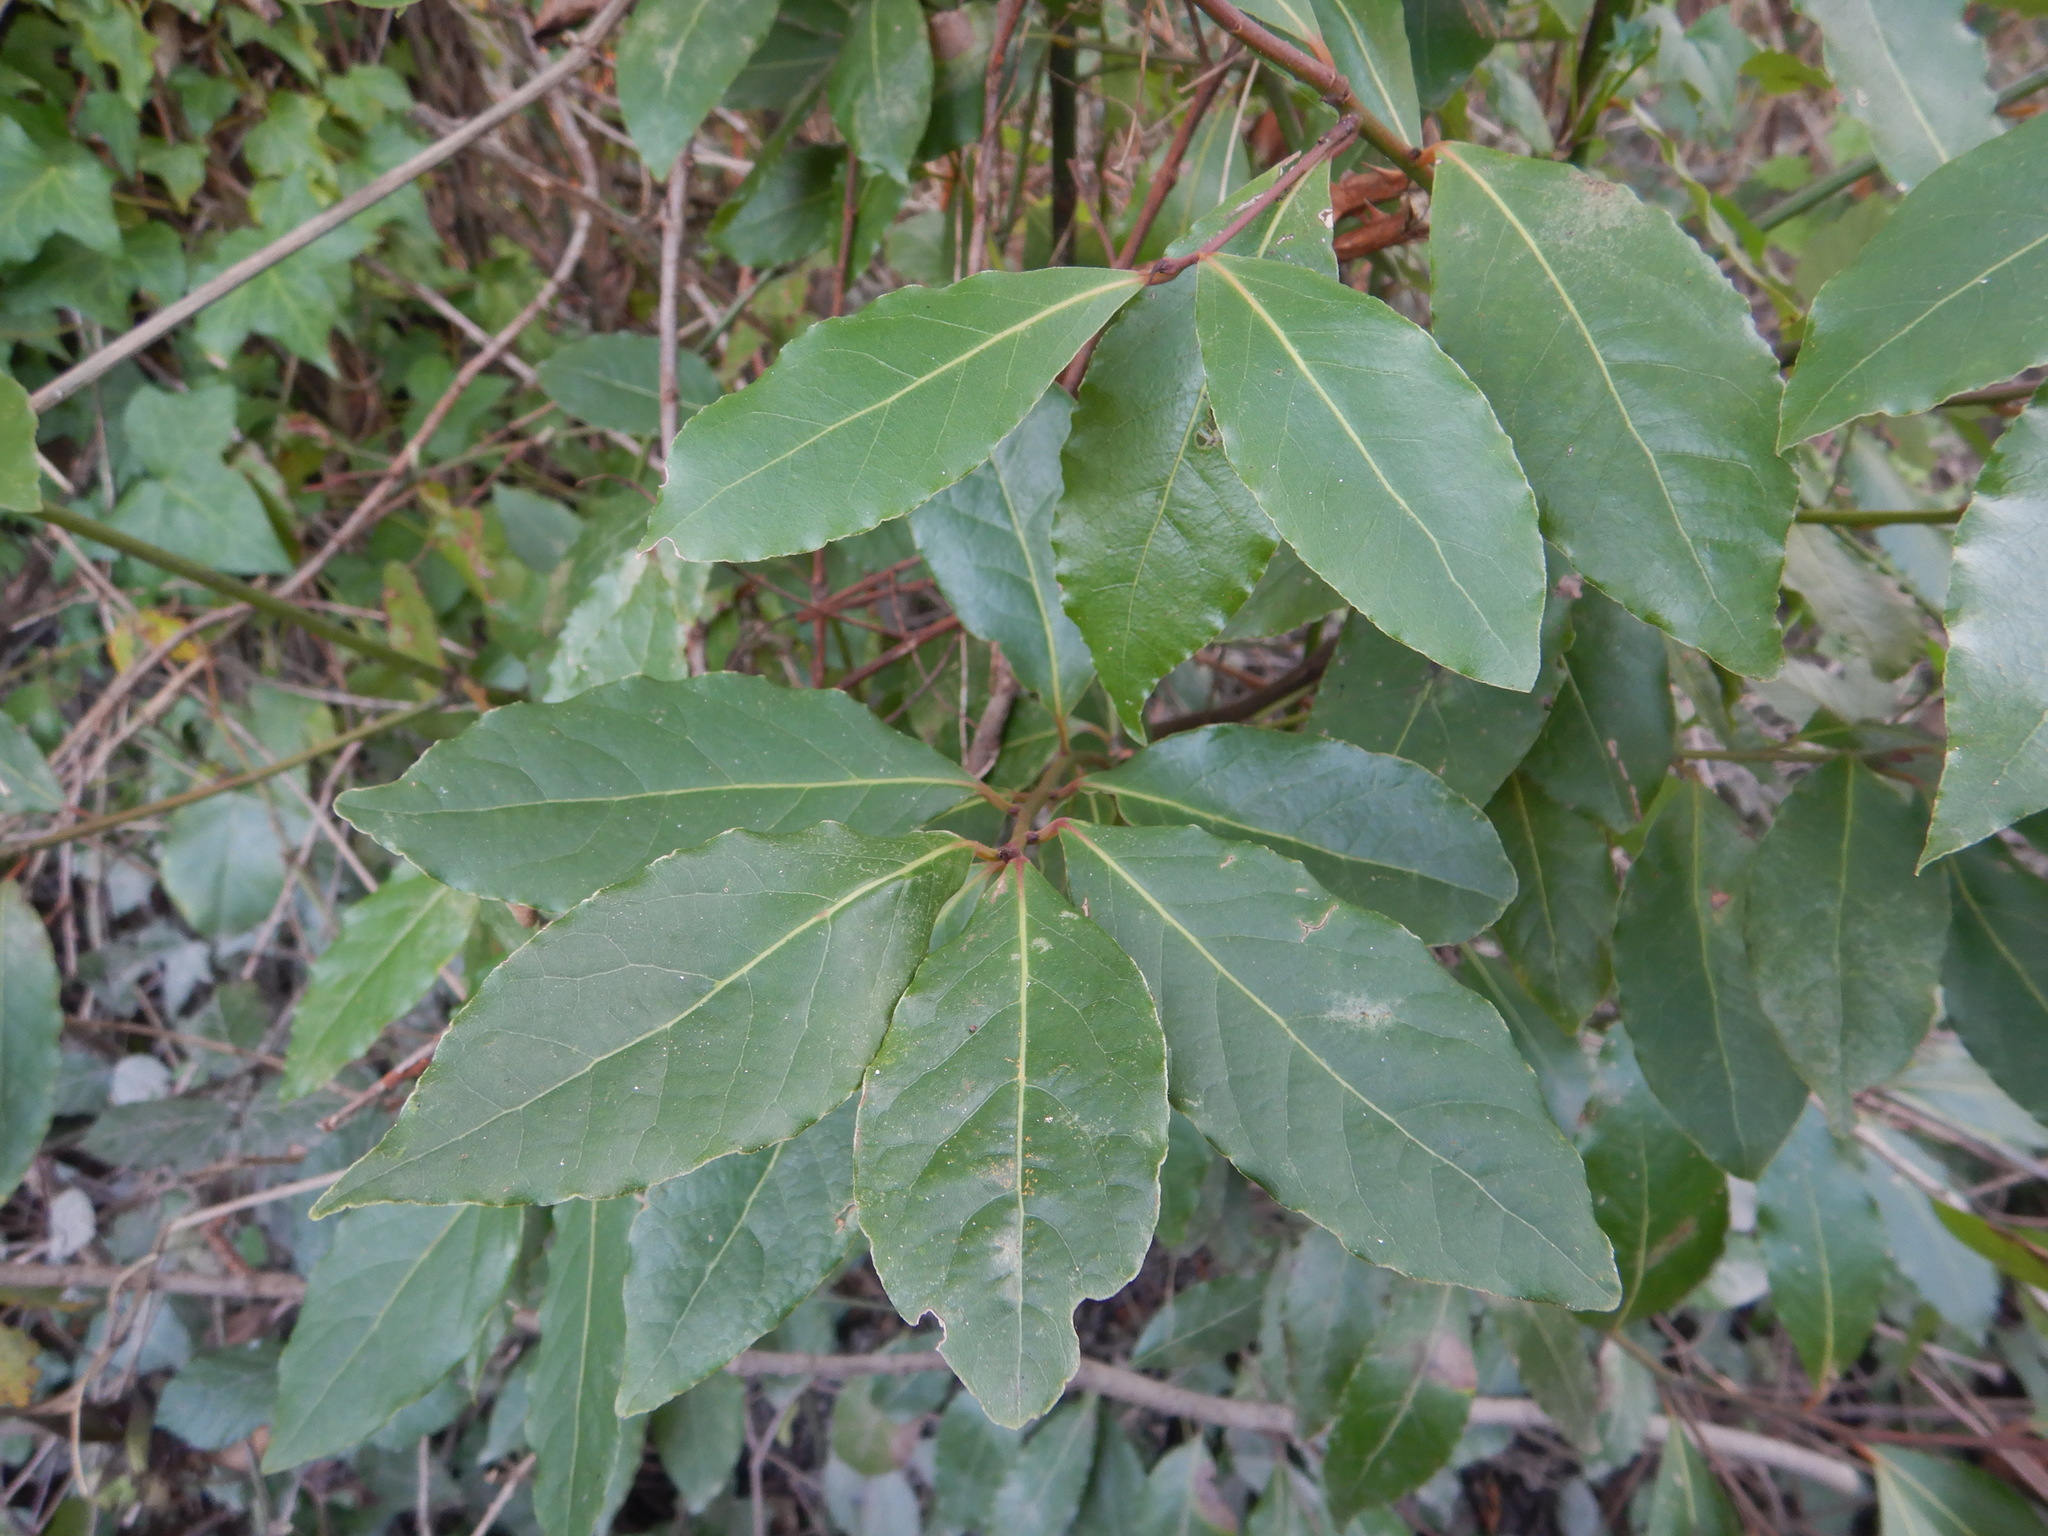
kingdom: Plantae
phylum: Tracheophyta
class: Magnoliopsida
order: Laurales
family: Lauraceae
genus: Laurus
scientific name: Laurus nobilis
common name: Bay
